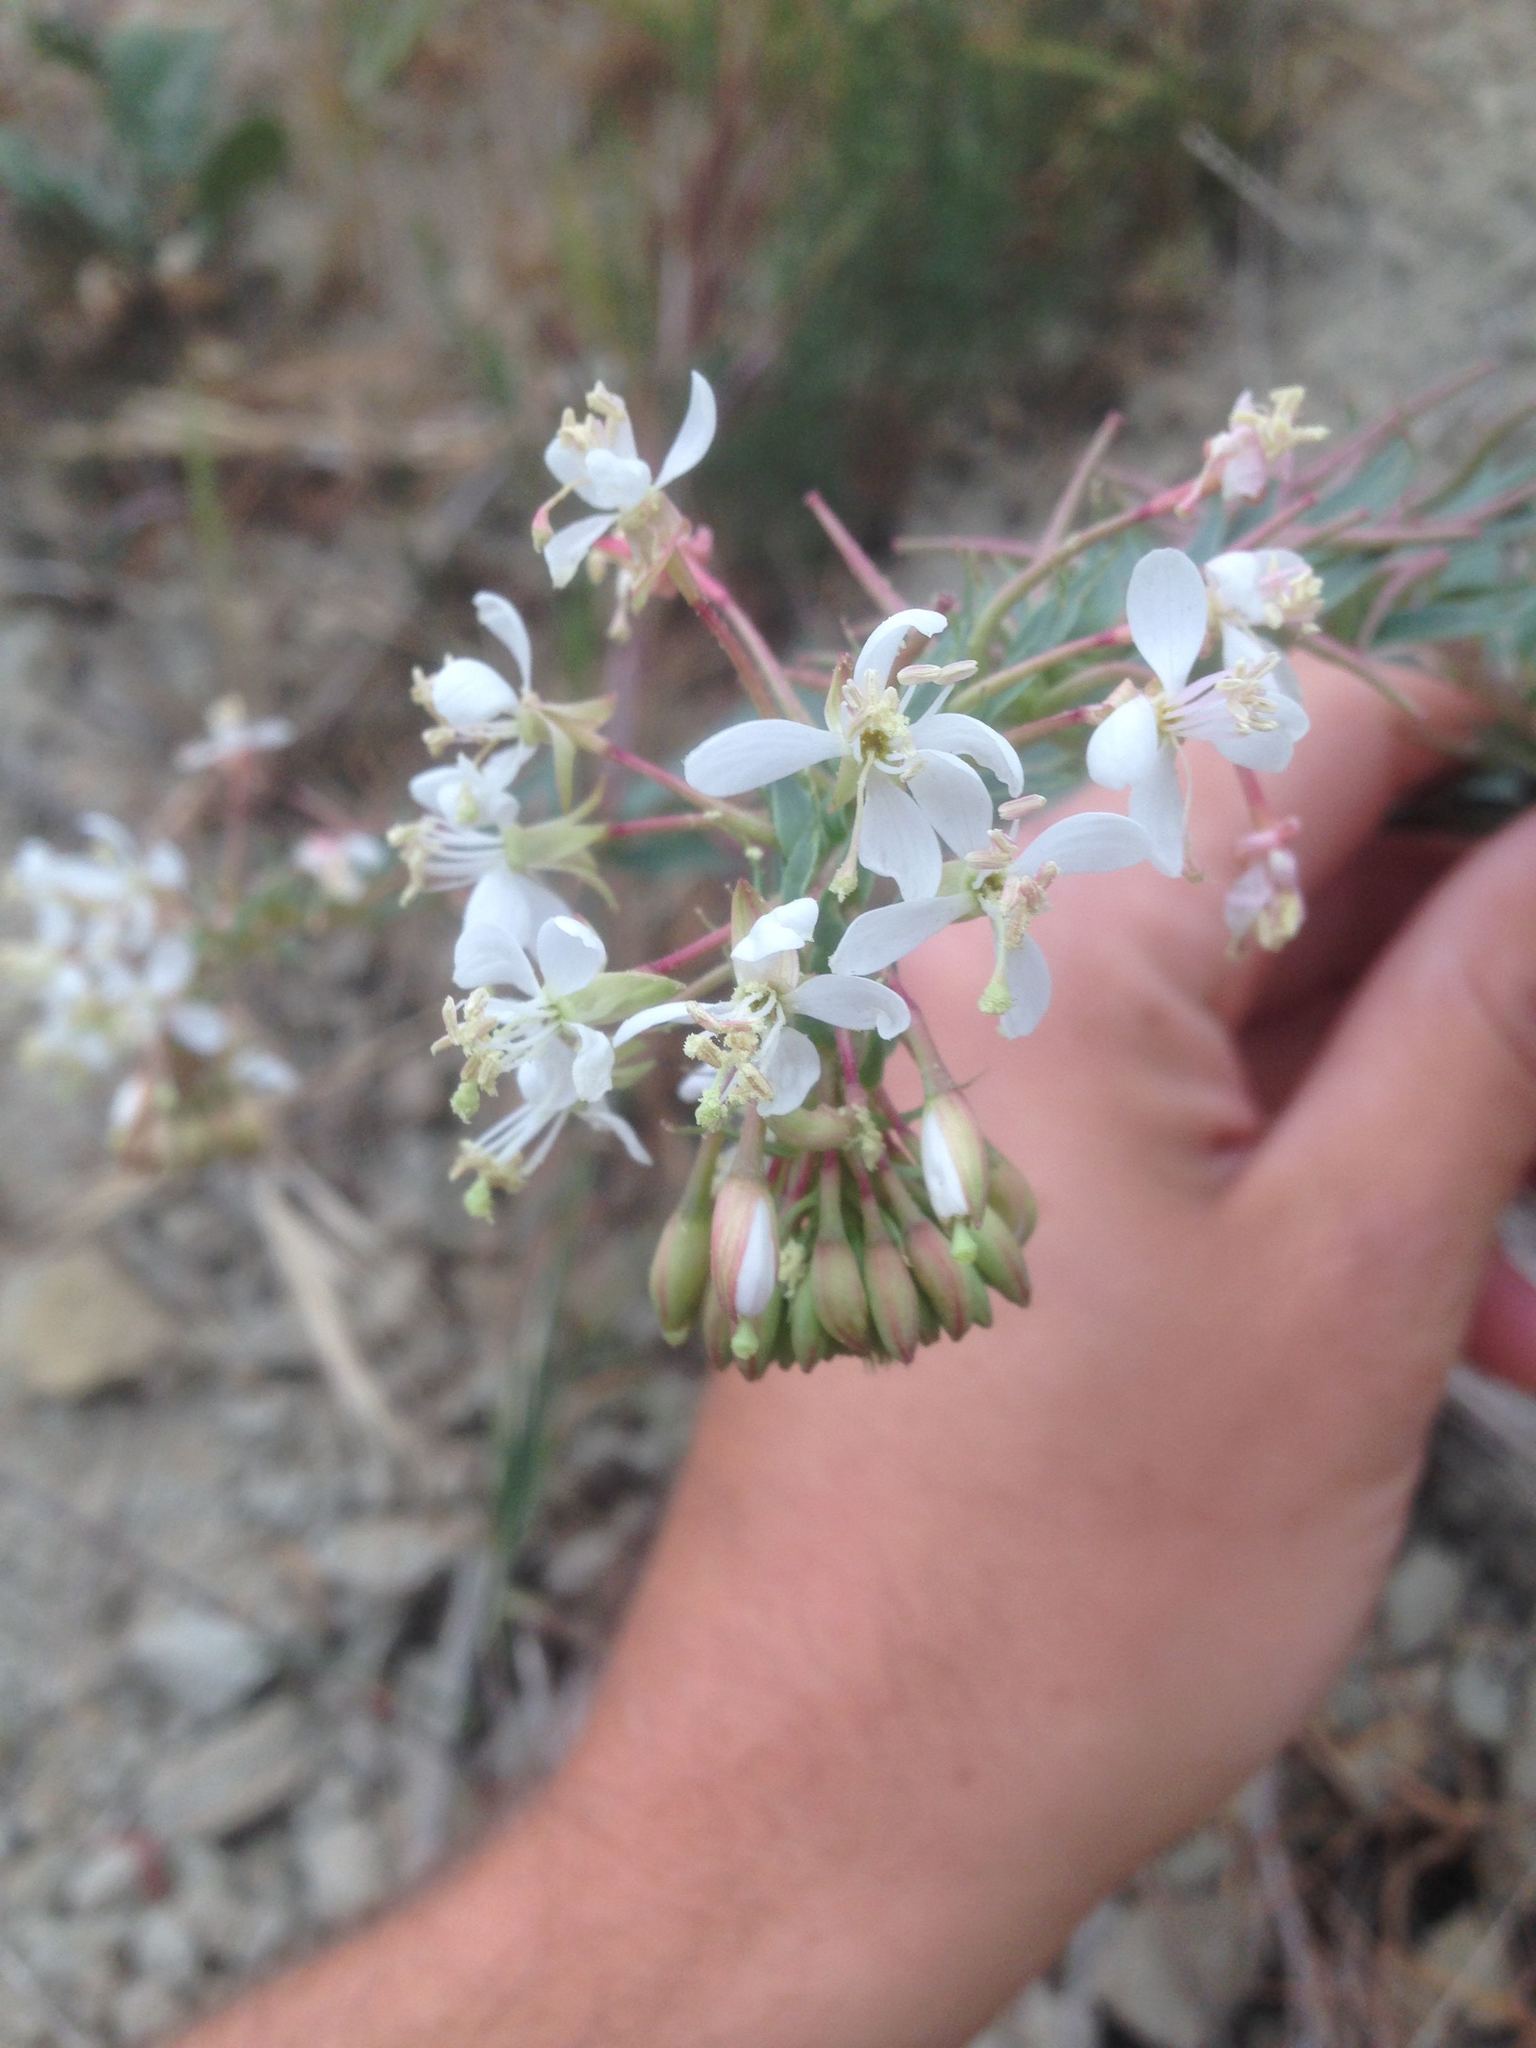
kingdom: Plantae
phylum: Tracheophyta
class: Magnoliopsida
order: Myrtales
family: Onagraceae
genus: Eremothera
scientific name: Eremothera boothii
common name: Booth's evening primrose
